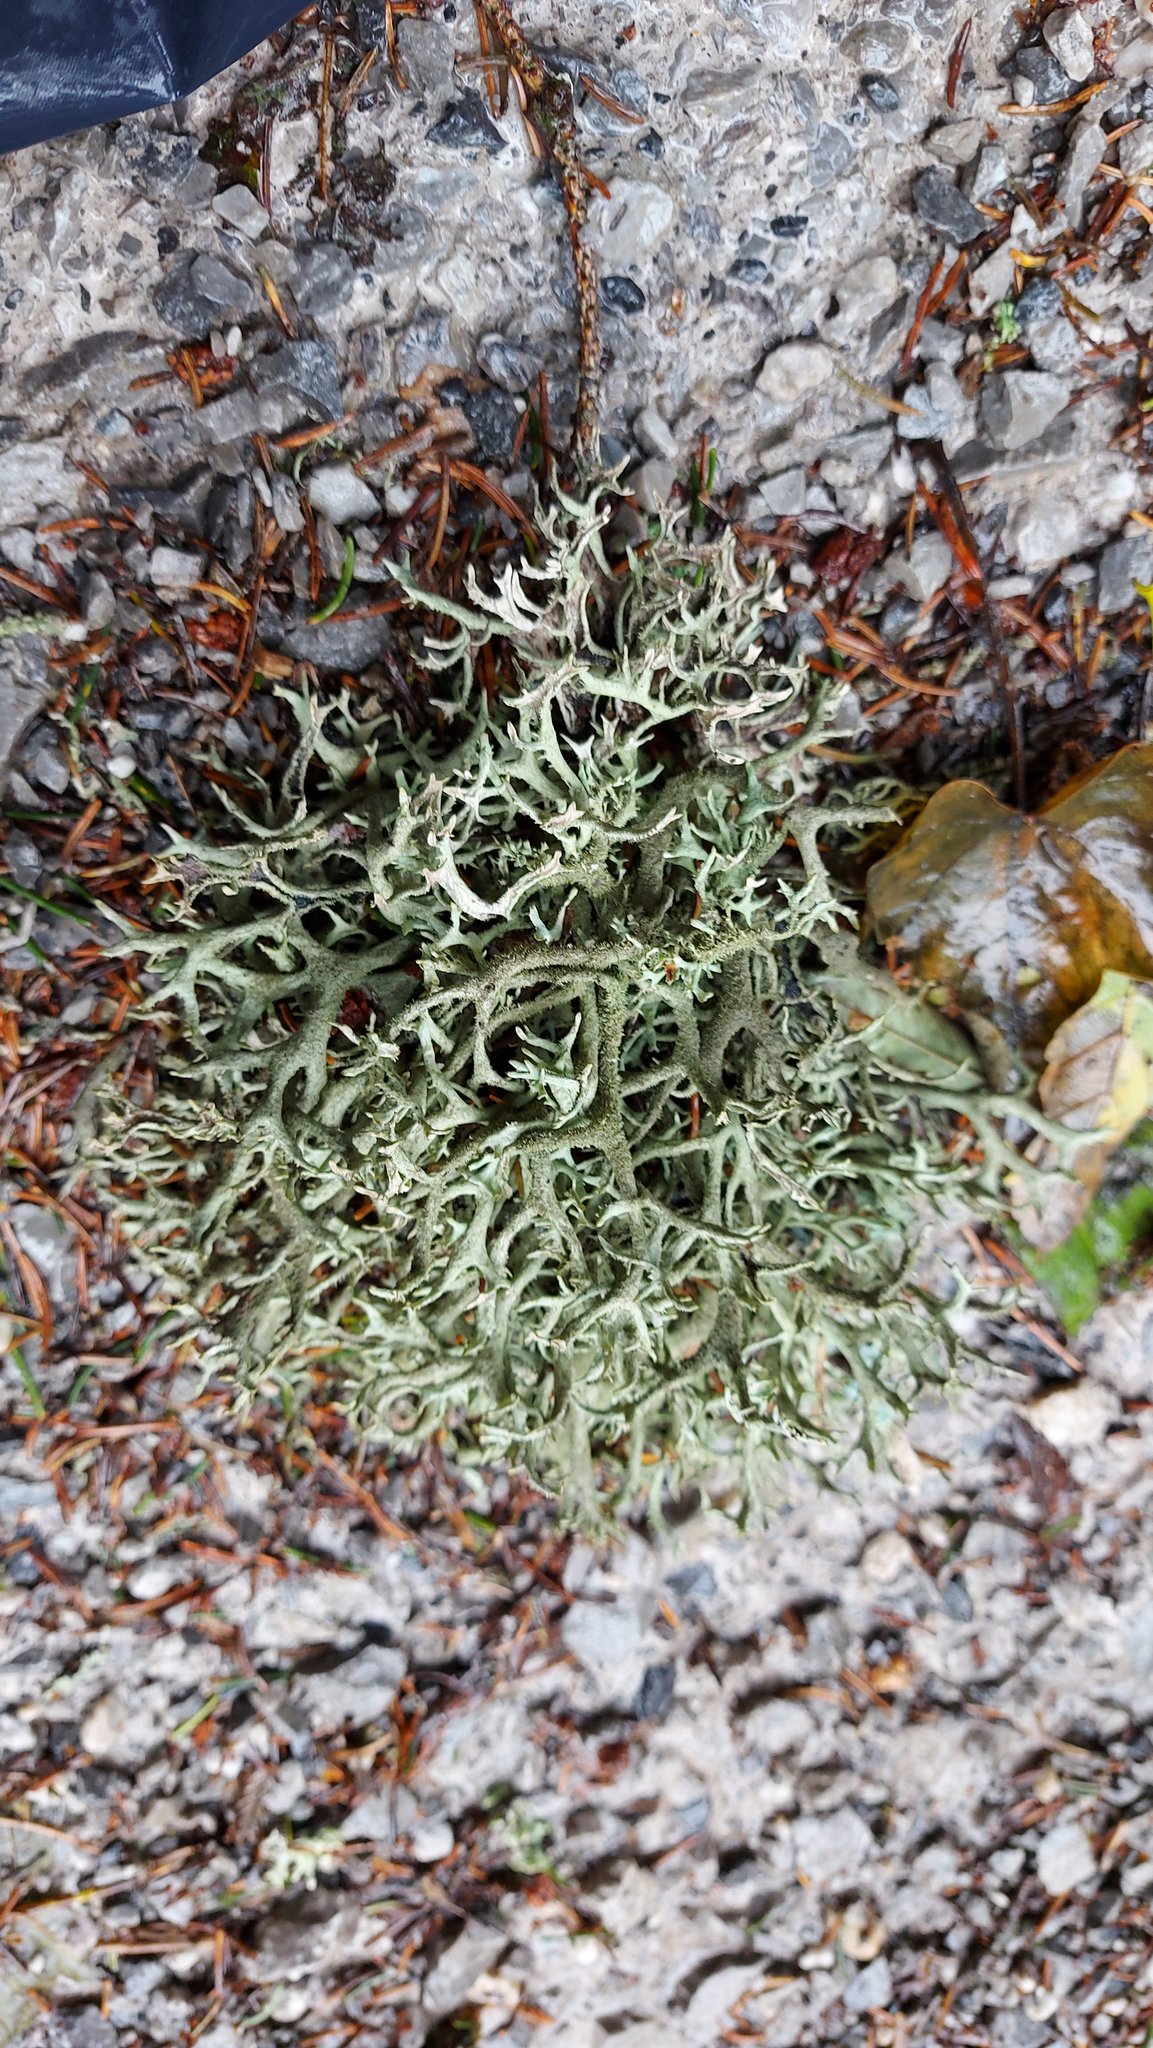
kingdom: Fungi
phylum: Ascomycota
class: Lecanoromycetes
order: Lecanorales
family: Parmeliaceae
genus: Pseudevernia
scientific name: Pseudevernia furfuracea
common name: Tree moss
